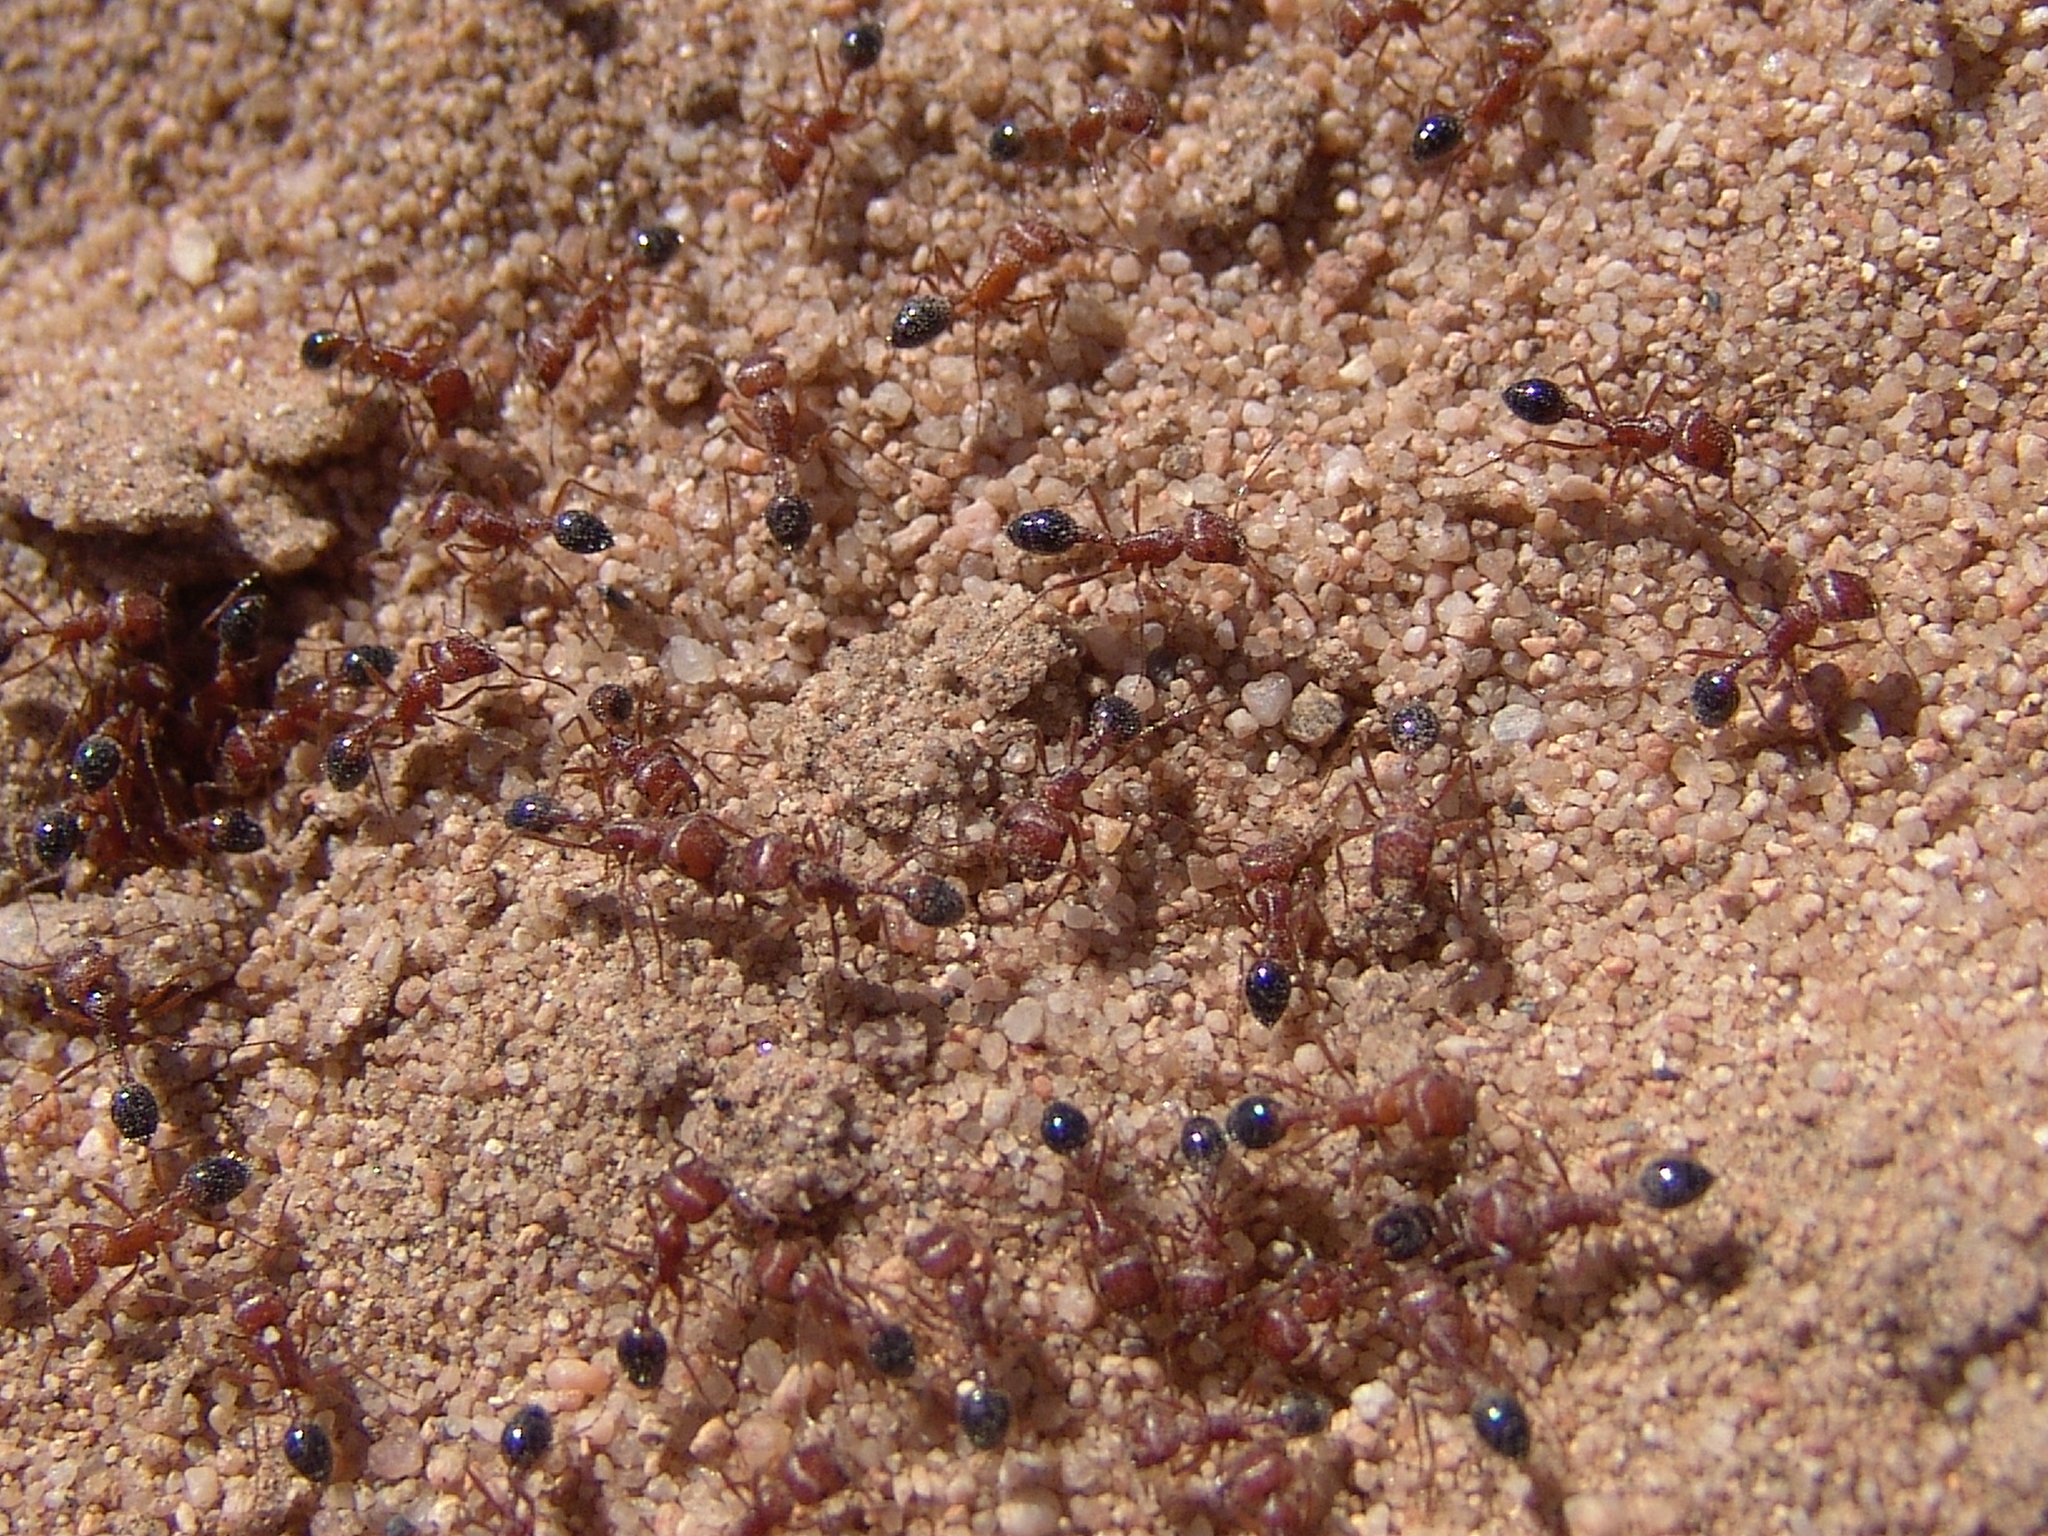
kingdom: Animalia
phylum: Arthropoda
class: Insecta
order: Hymenoptera
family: Formicidae
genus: Pogonomyrmex
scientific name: Pogonomyrmex californicus
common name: California harvester ant
